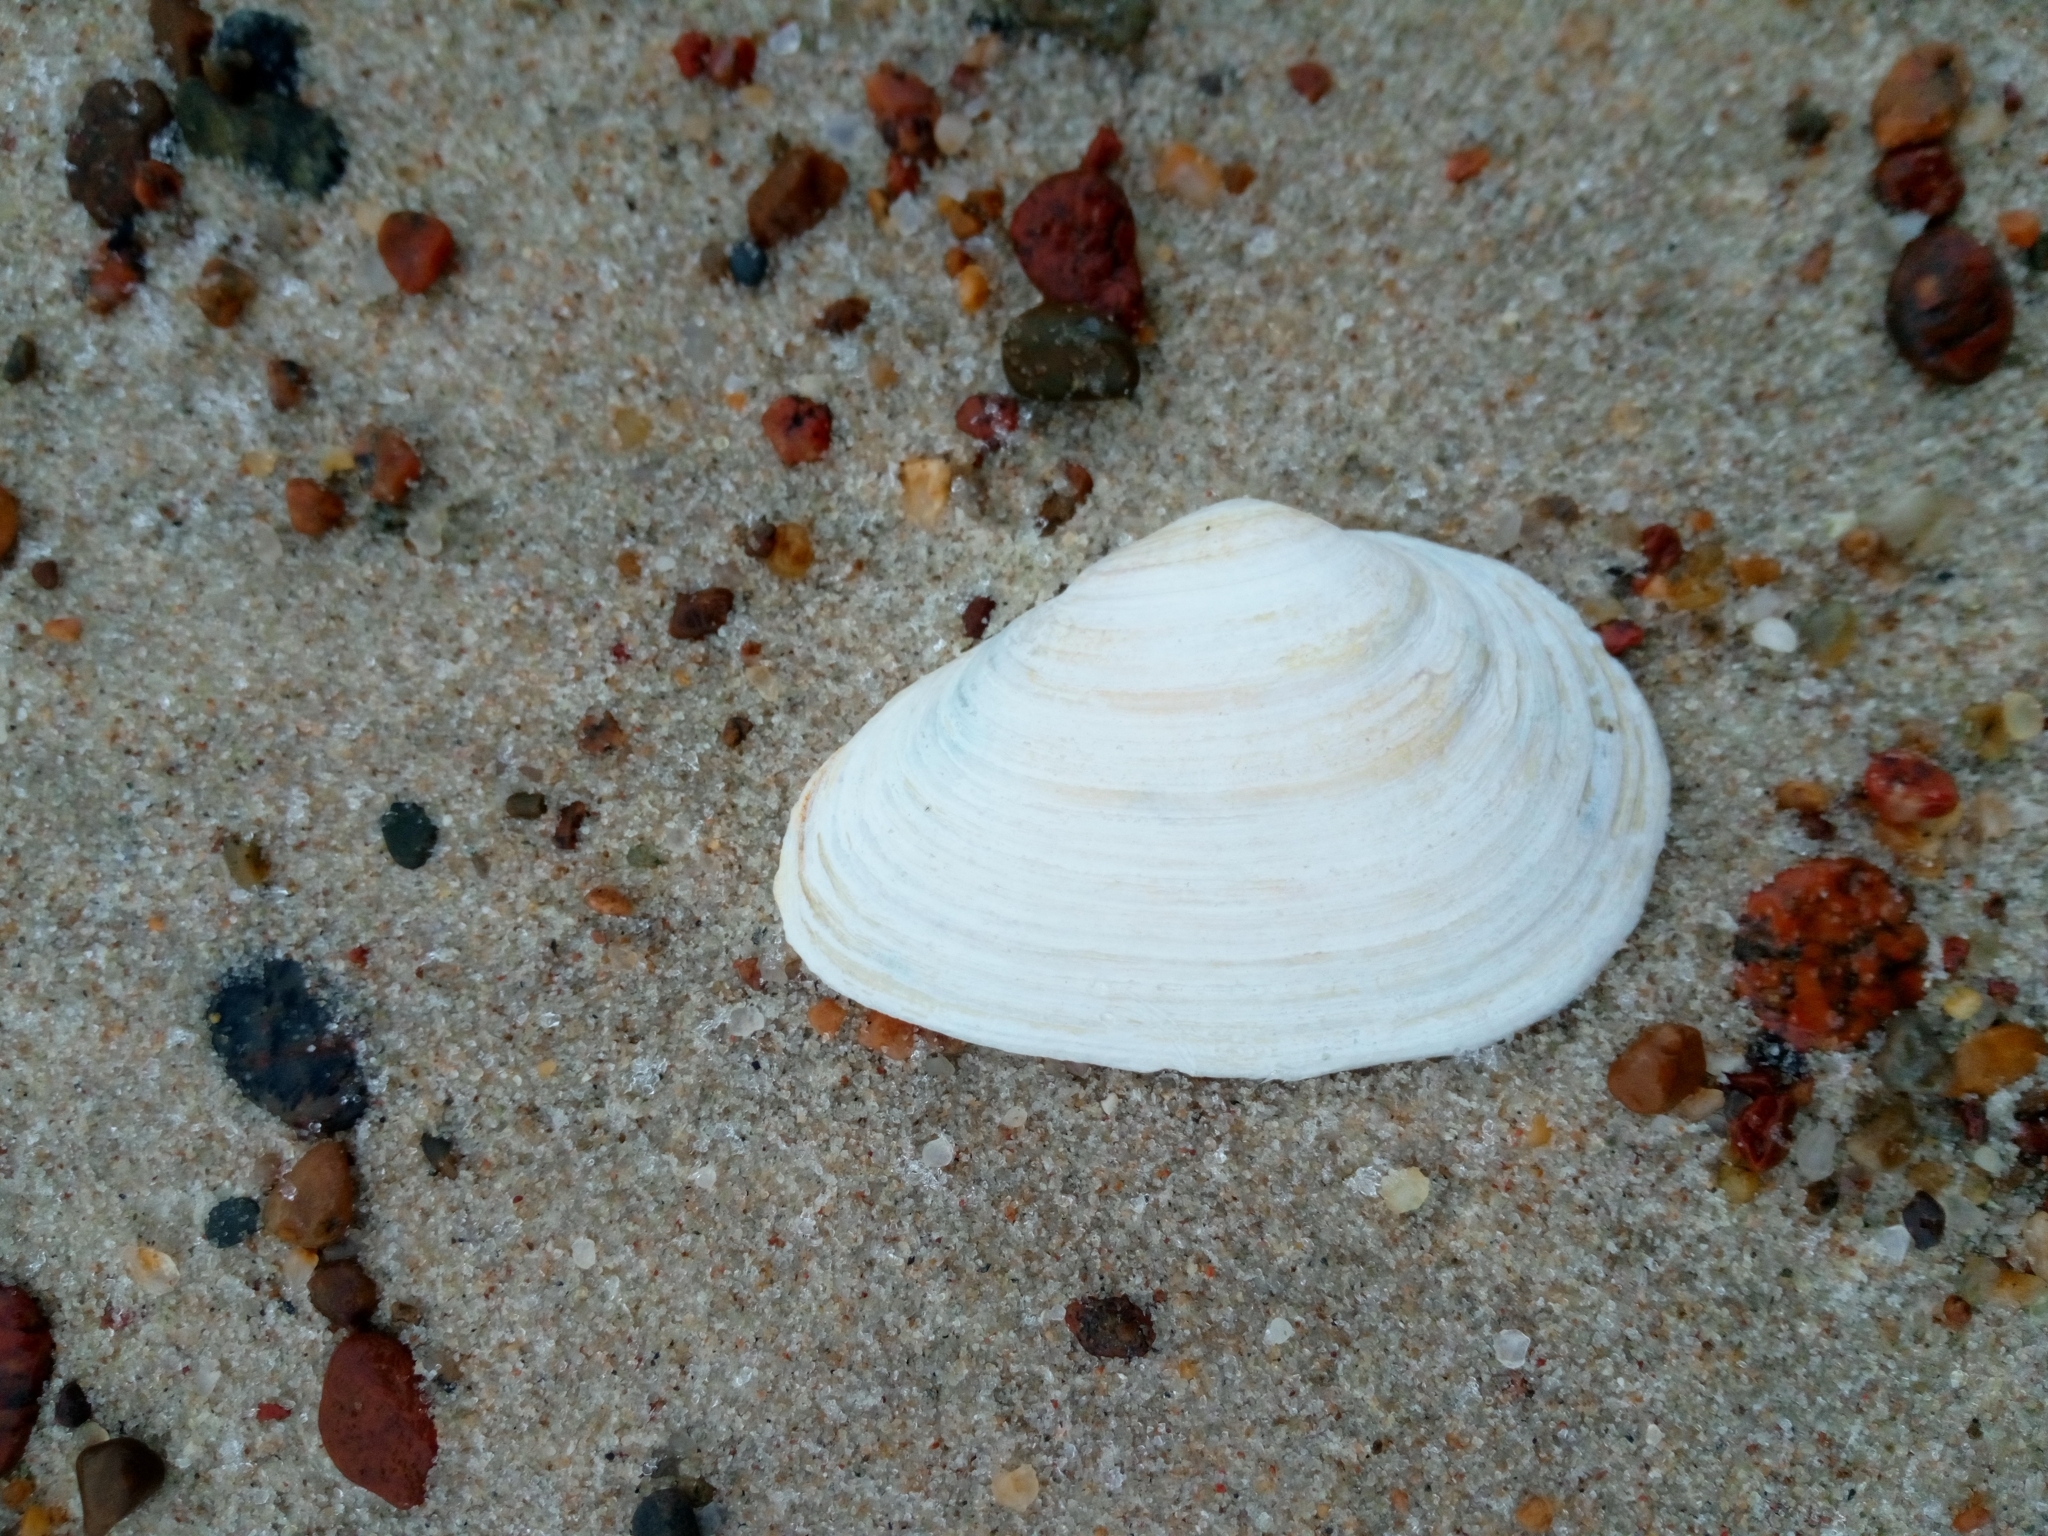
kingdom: Animalia
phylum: Mollusca
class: Bivalvia
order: Myida
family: Myidae
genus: Mya
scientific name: Mya arenaria
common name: Soft-shelled clam
